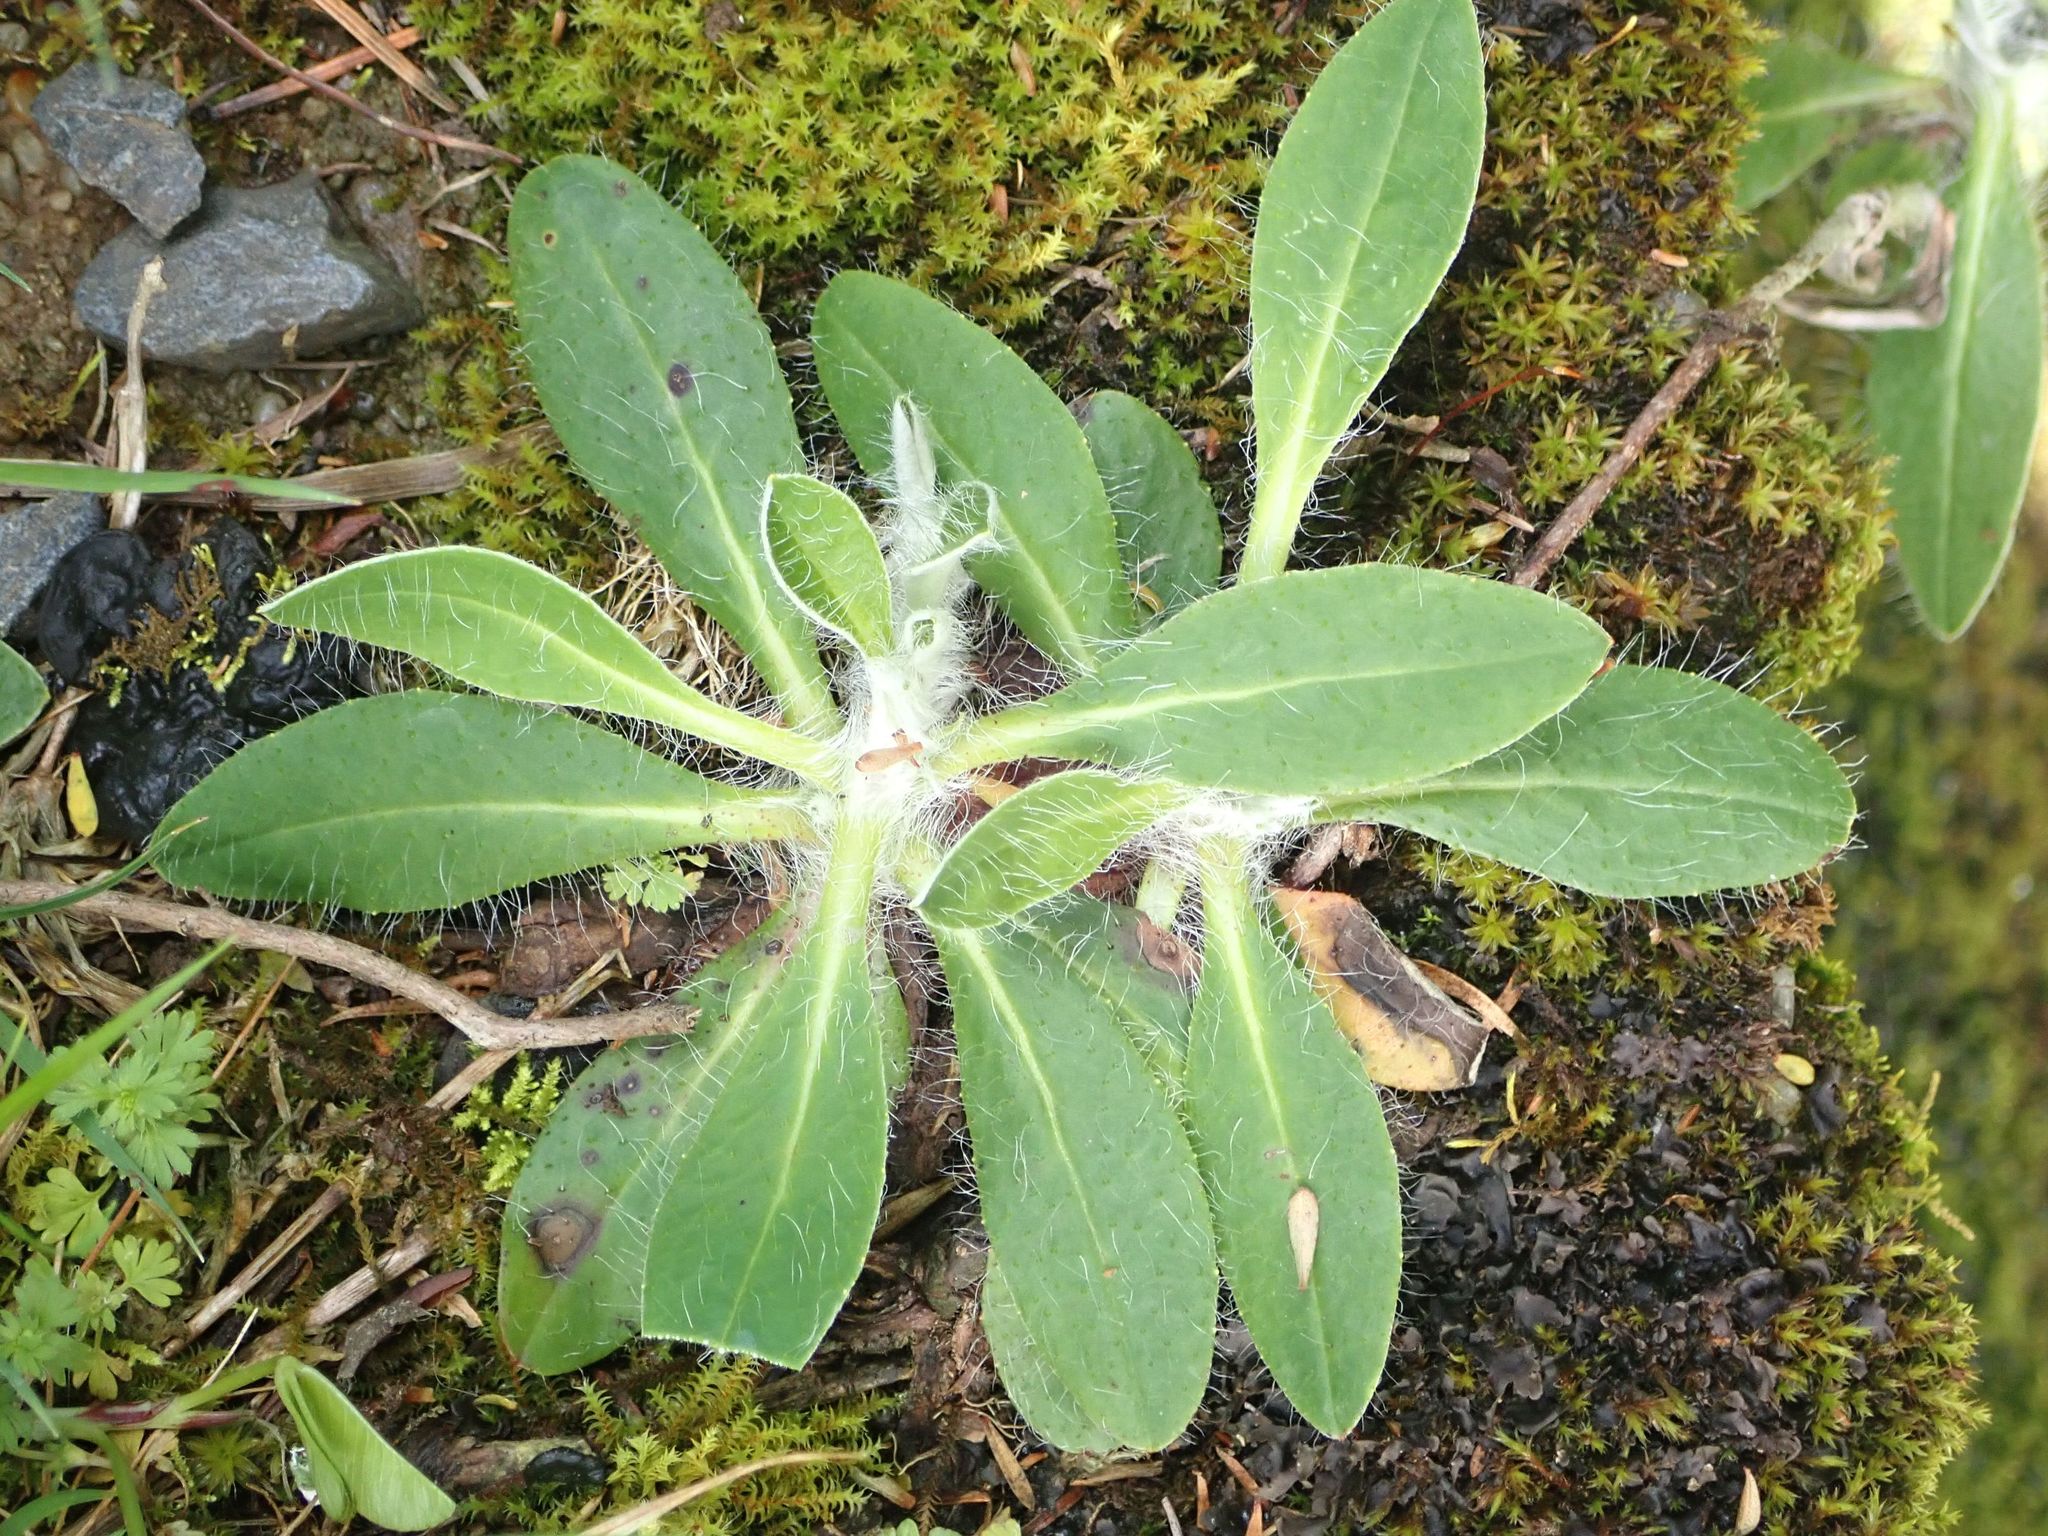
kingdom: Plantae
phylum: Tracheophyta
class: Magnoliopsida
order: Asterales
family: Asteraceae
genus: Pilosella
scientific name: Pilosella officinarum
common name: Mouse-ear hawkweed
